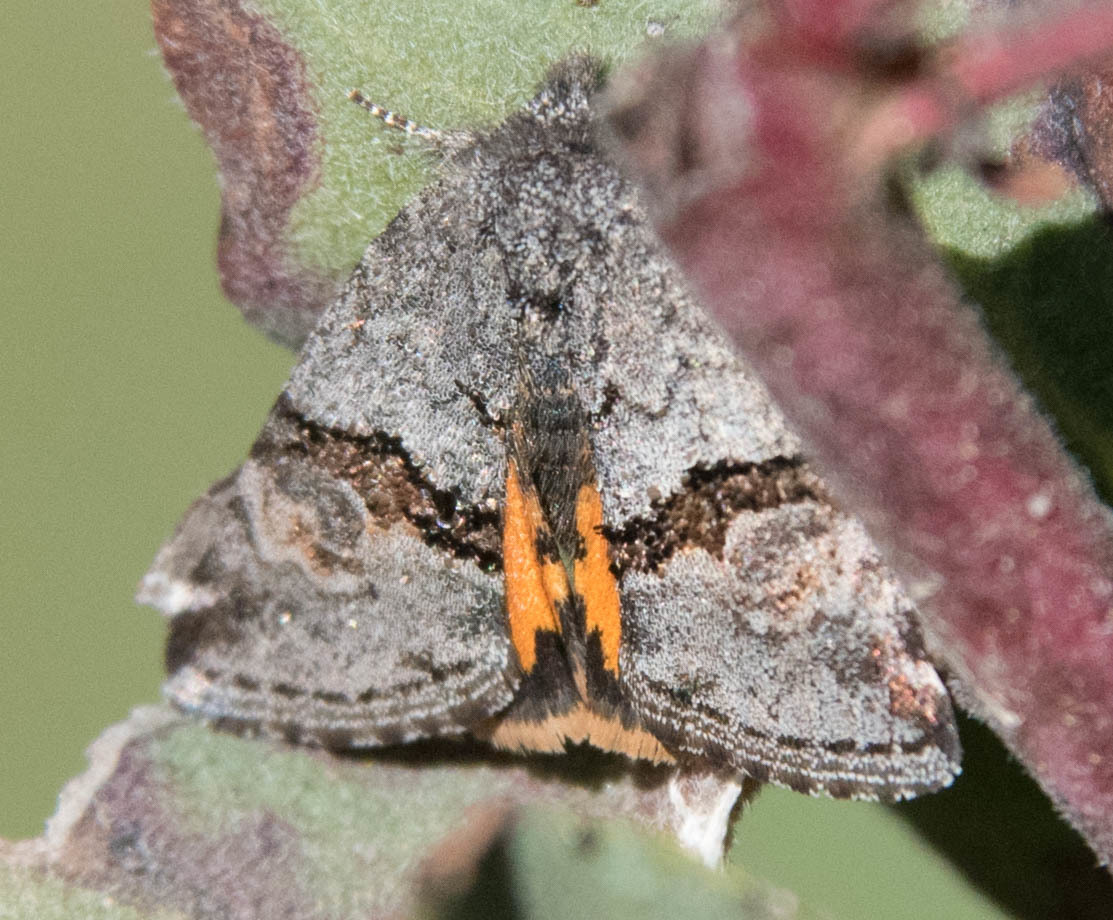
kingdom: Animalia
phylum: Arthropoda
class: Insecta
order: Lepidoptera
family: Noctuidae
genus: Annaphila
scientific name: Annaphila depicta
